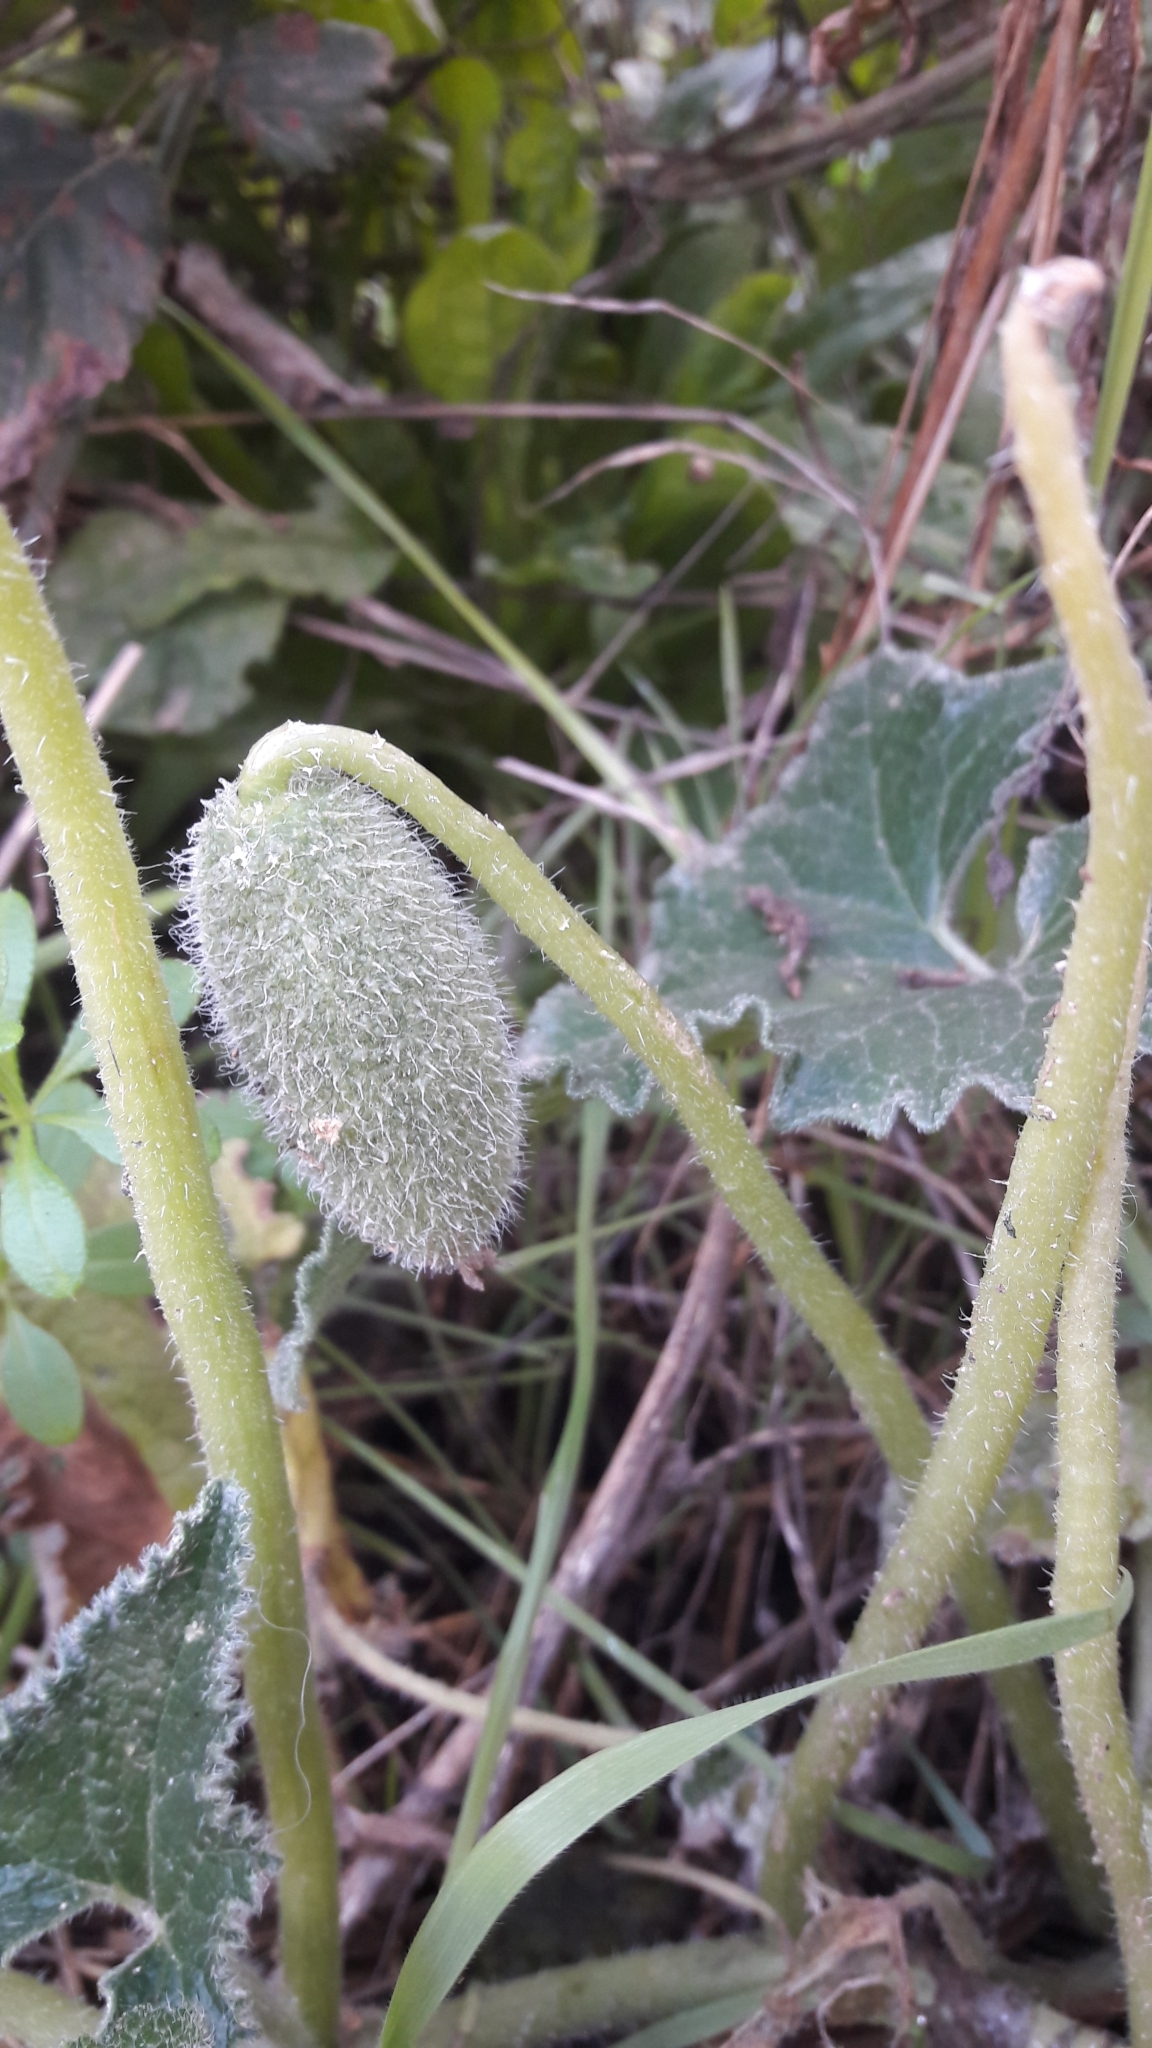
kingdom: Plantae
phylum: Tracheophyta
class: Magnoliopsida
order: Cucurbitales
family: Cucurbitaceae
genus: Ecballium
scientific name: Ecballium elaterium
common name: Squirting cucumber
